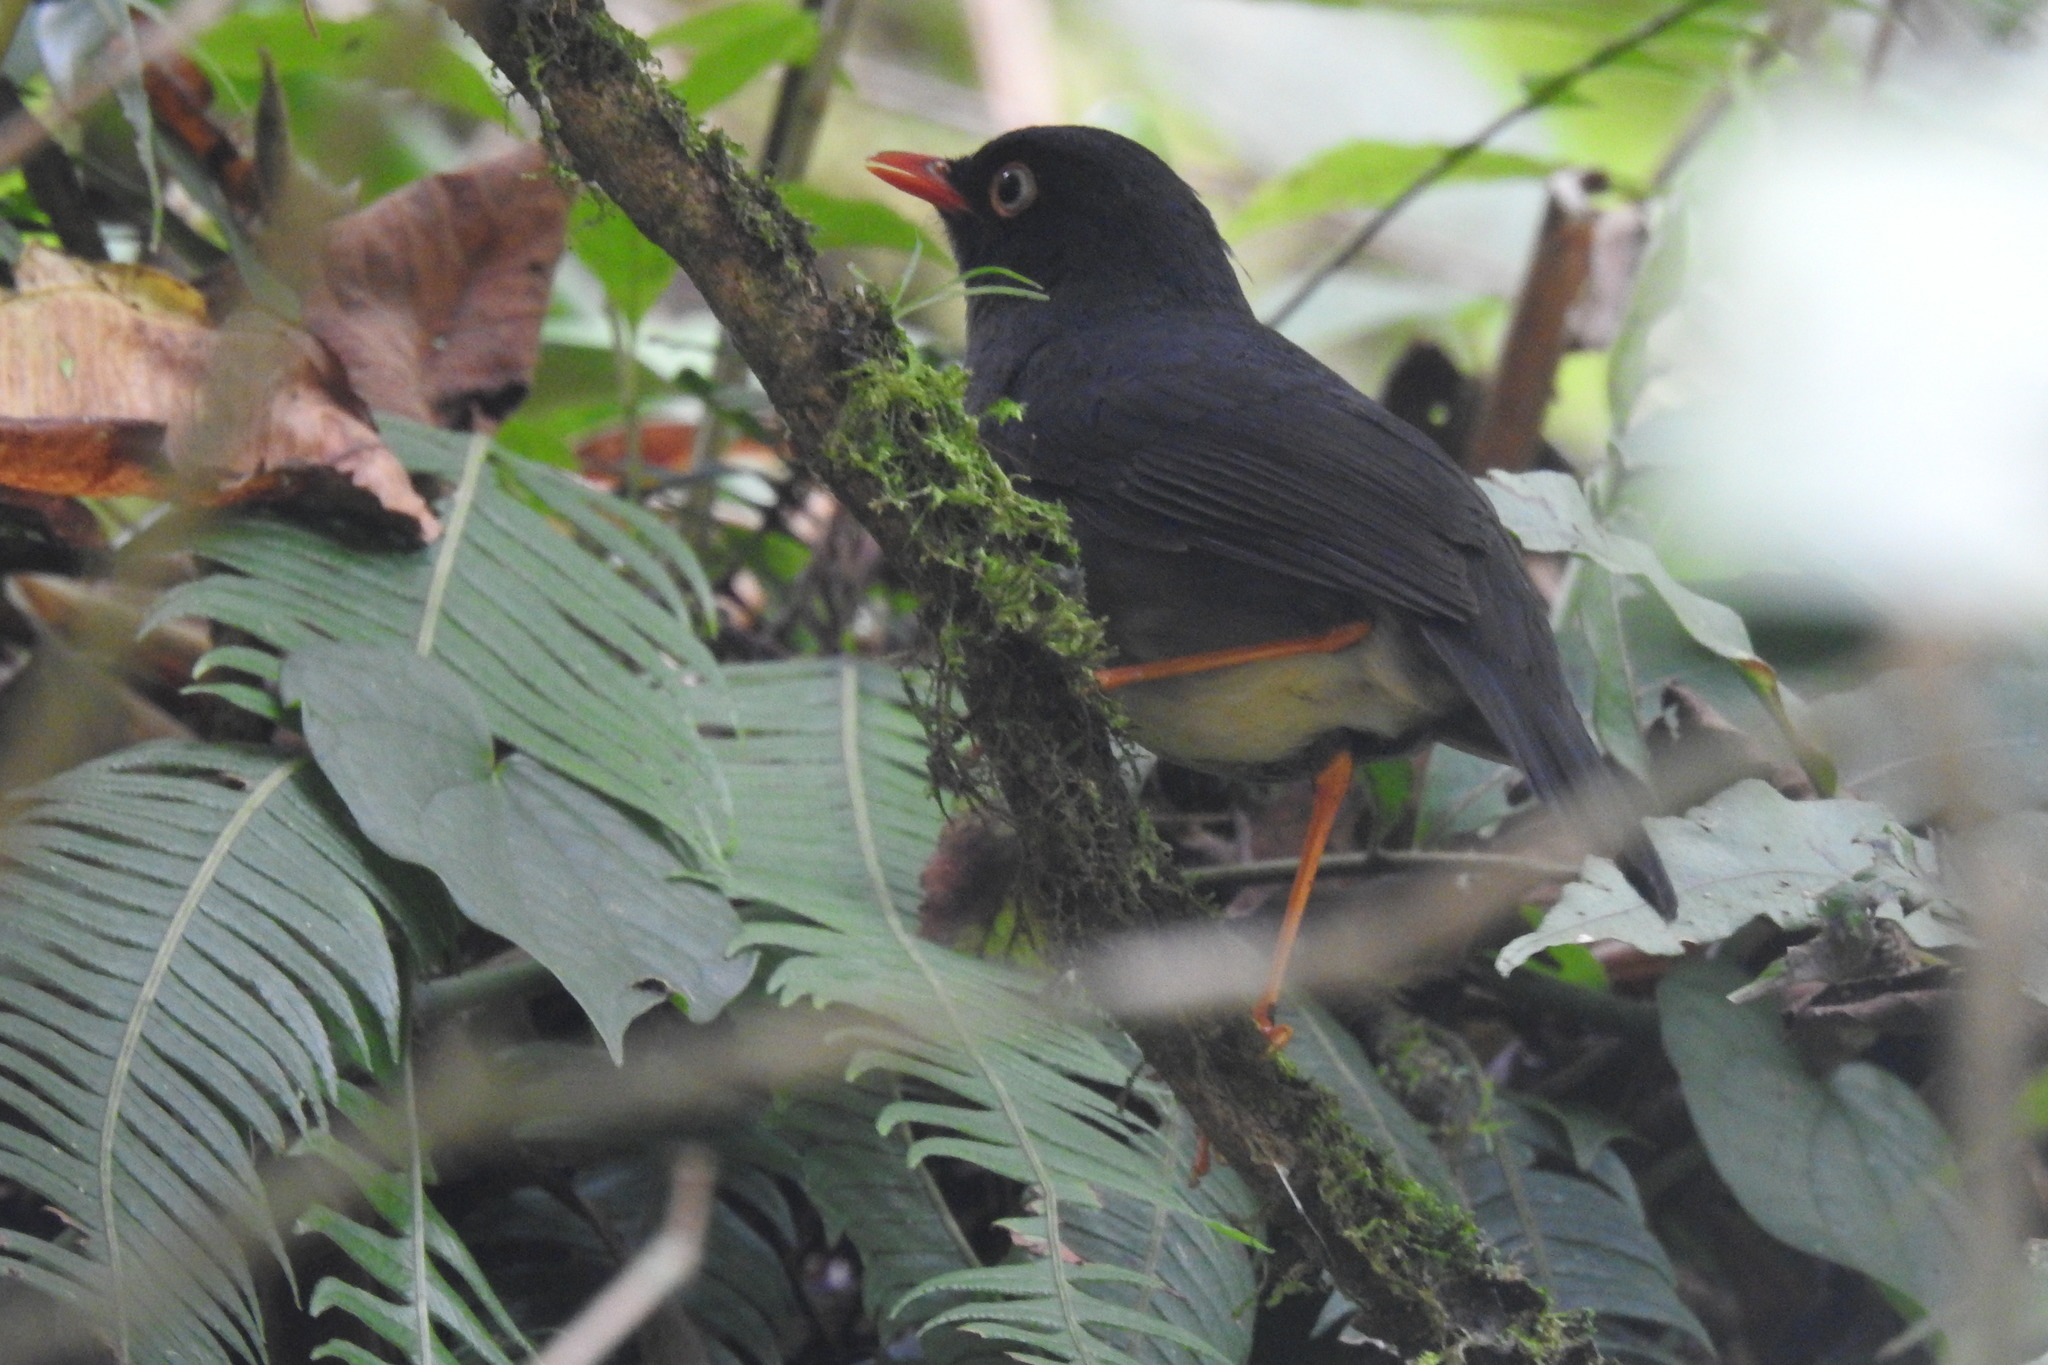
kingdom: Animalia
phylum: Chordata
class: Aves
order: Passeriformes
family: Turdidae
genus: Catharus
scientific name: Catharus fuscater
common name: Slaty-backed nightingale-thrush
